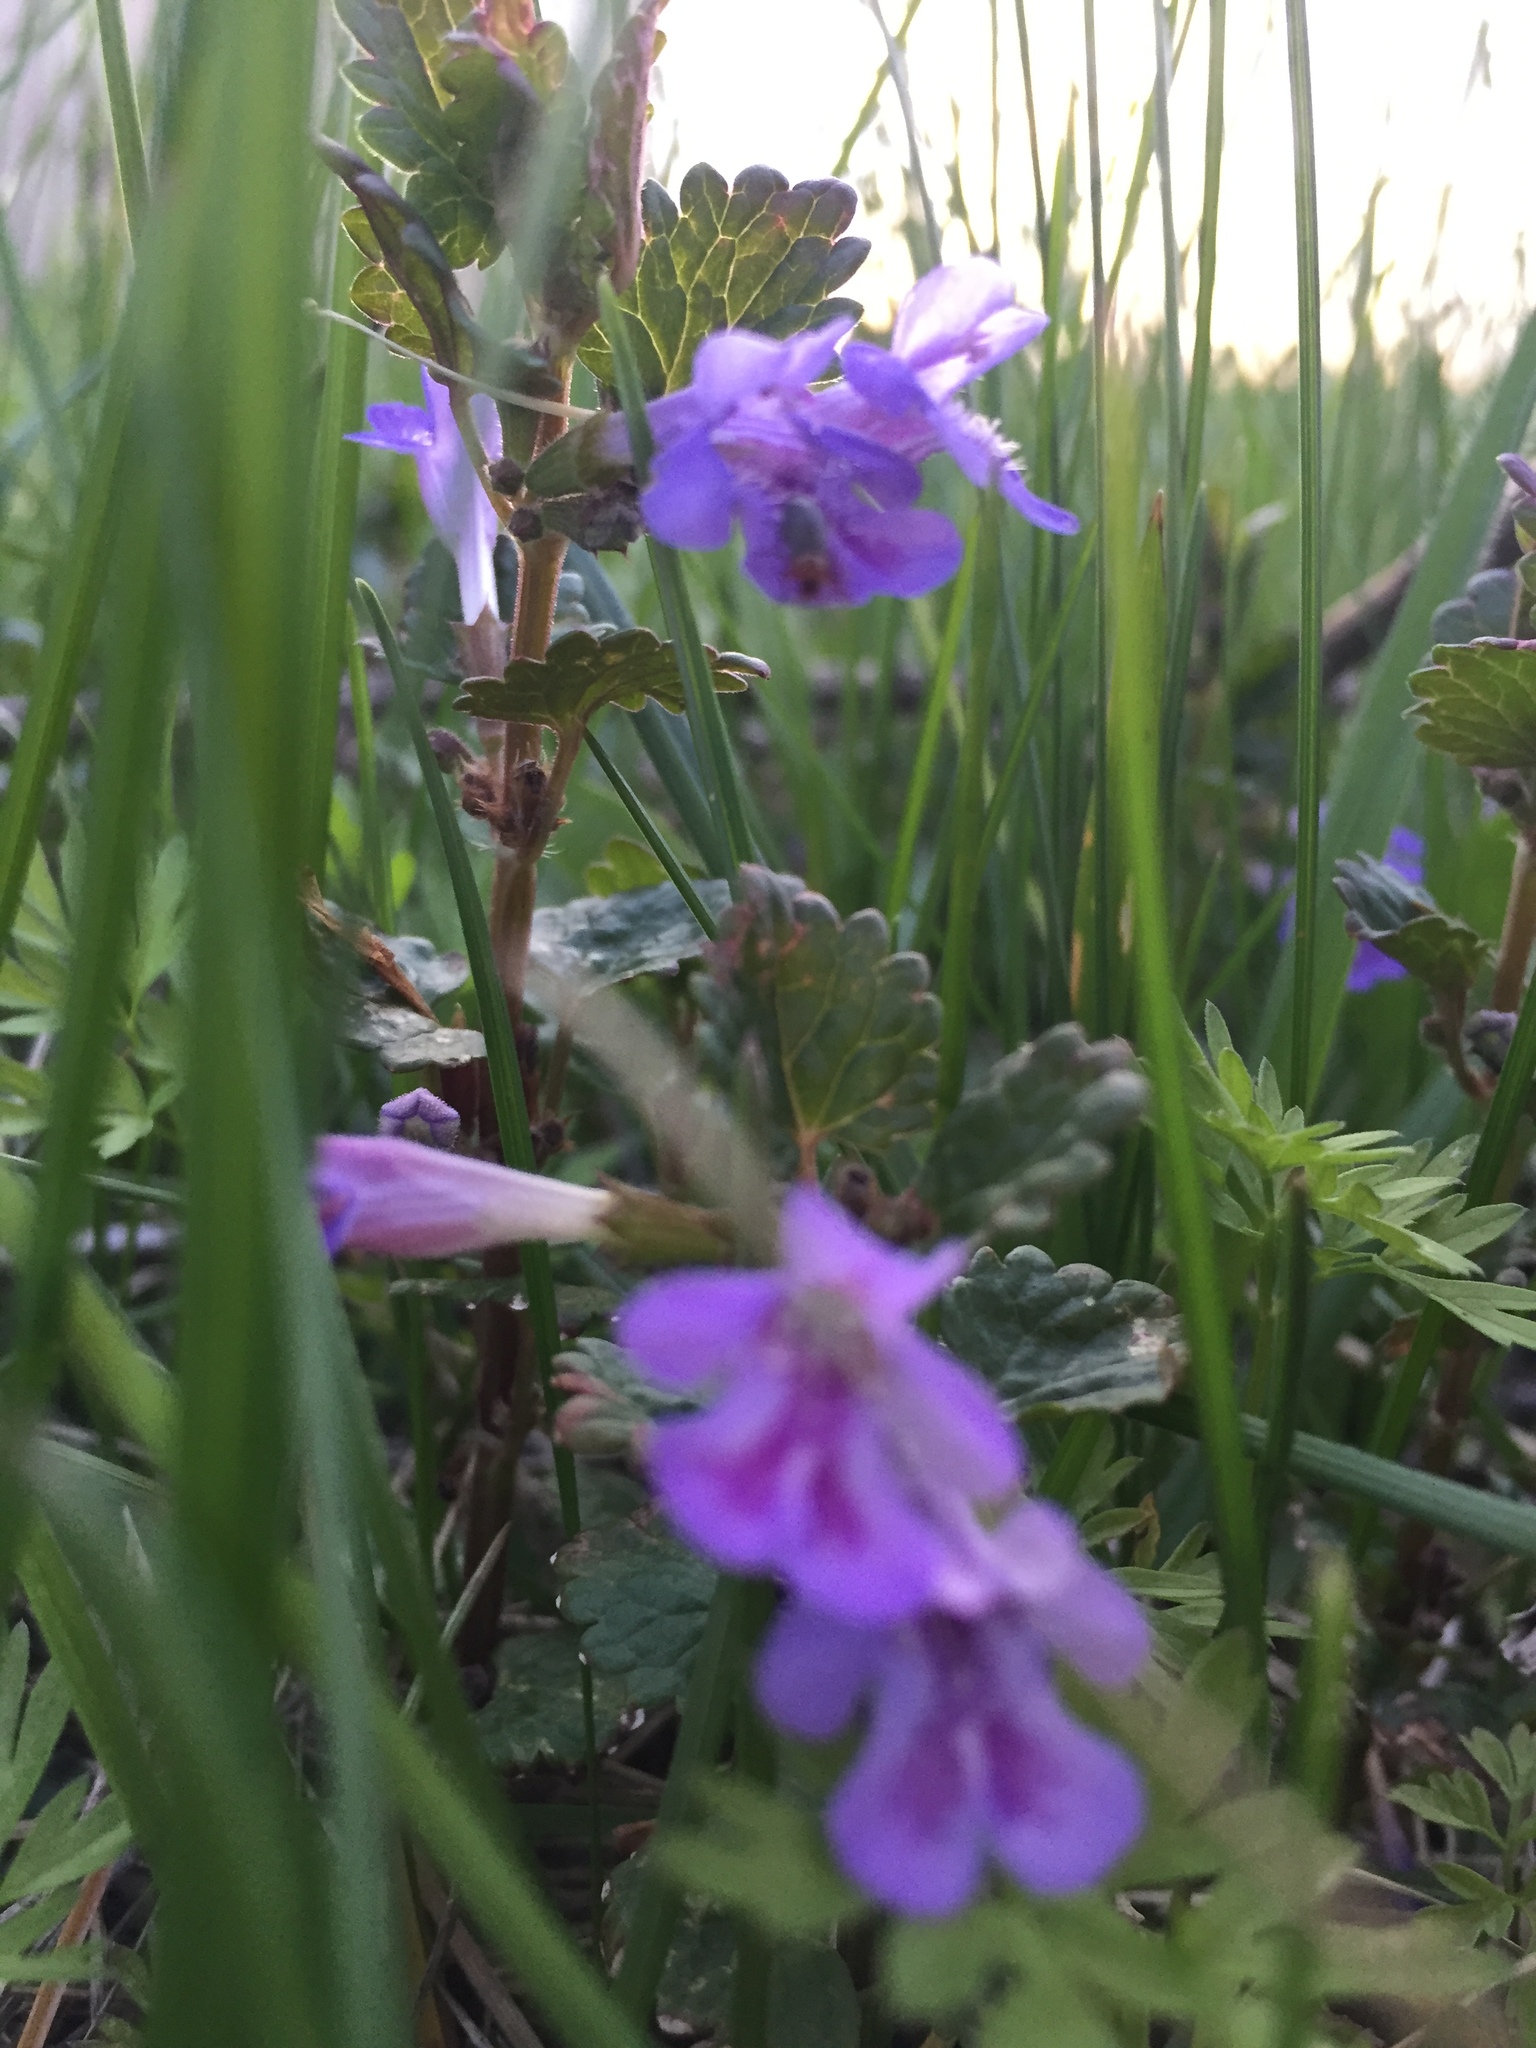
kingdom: Plantae
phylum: Tracheophyta
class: Magnoliopsida
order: Lamiales
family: Lamiaceae
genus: Glechoma
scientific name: Glechoma hederacea
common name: Ground ivy
